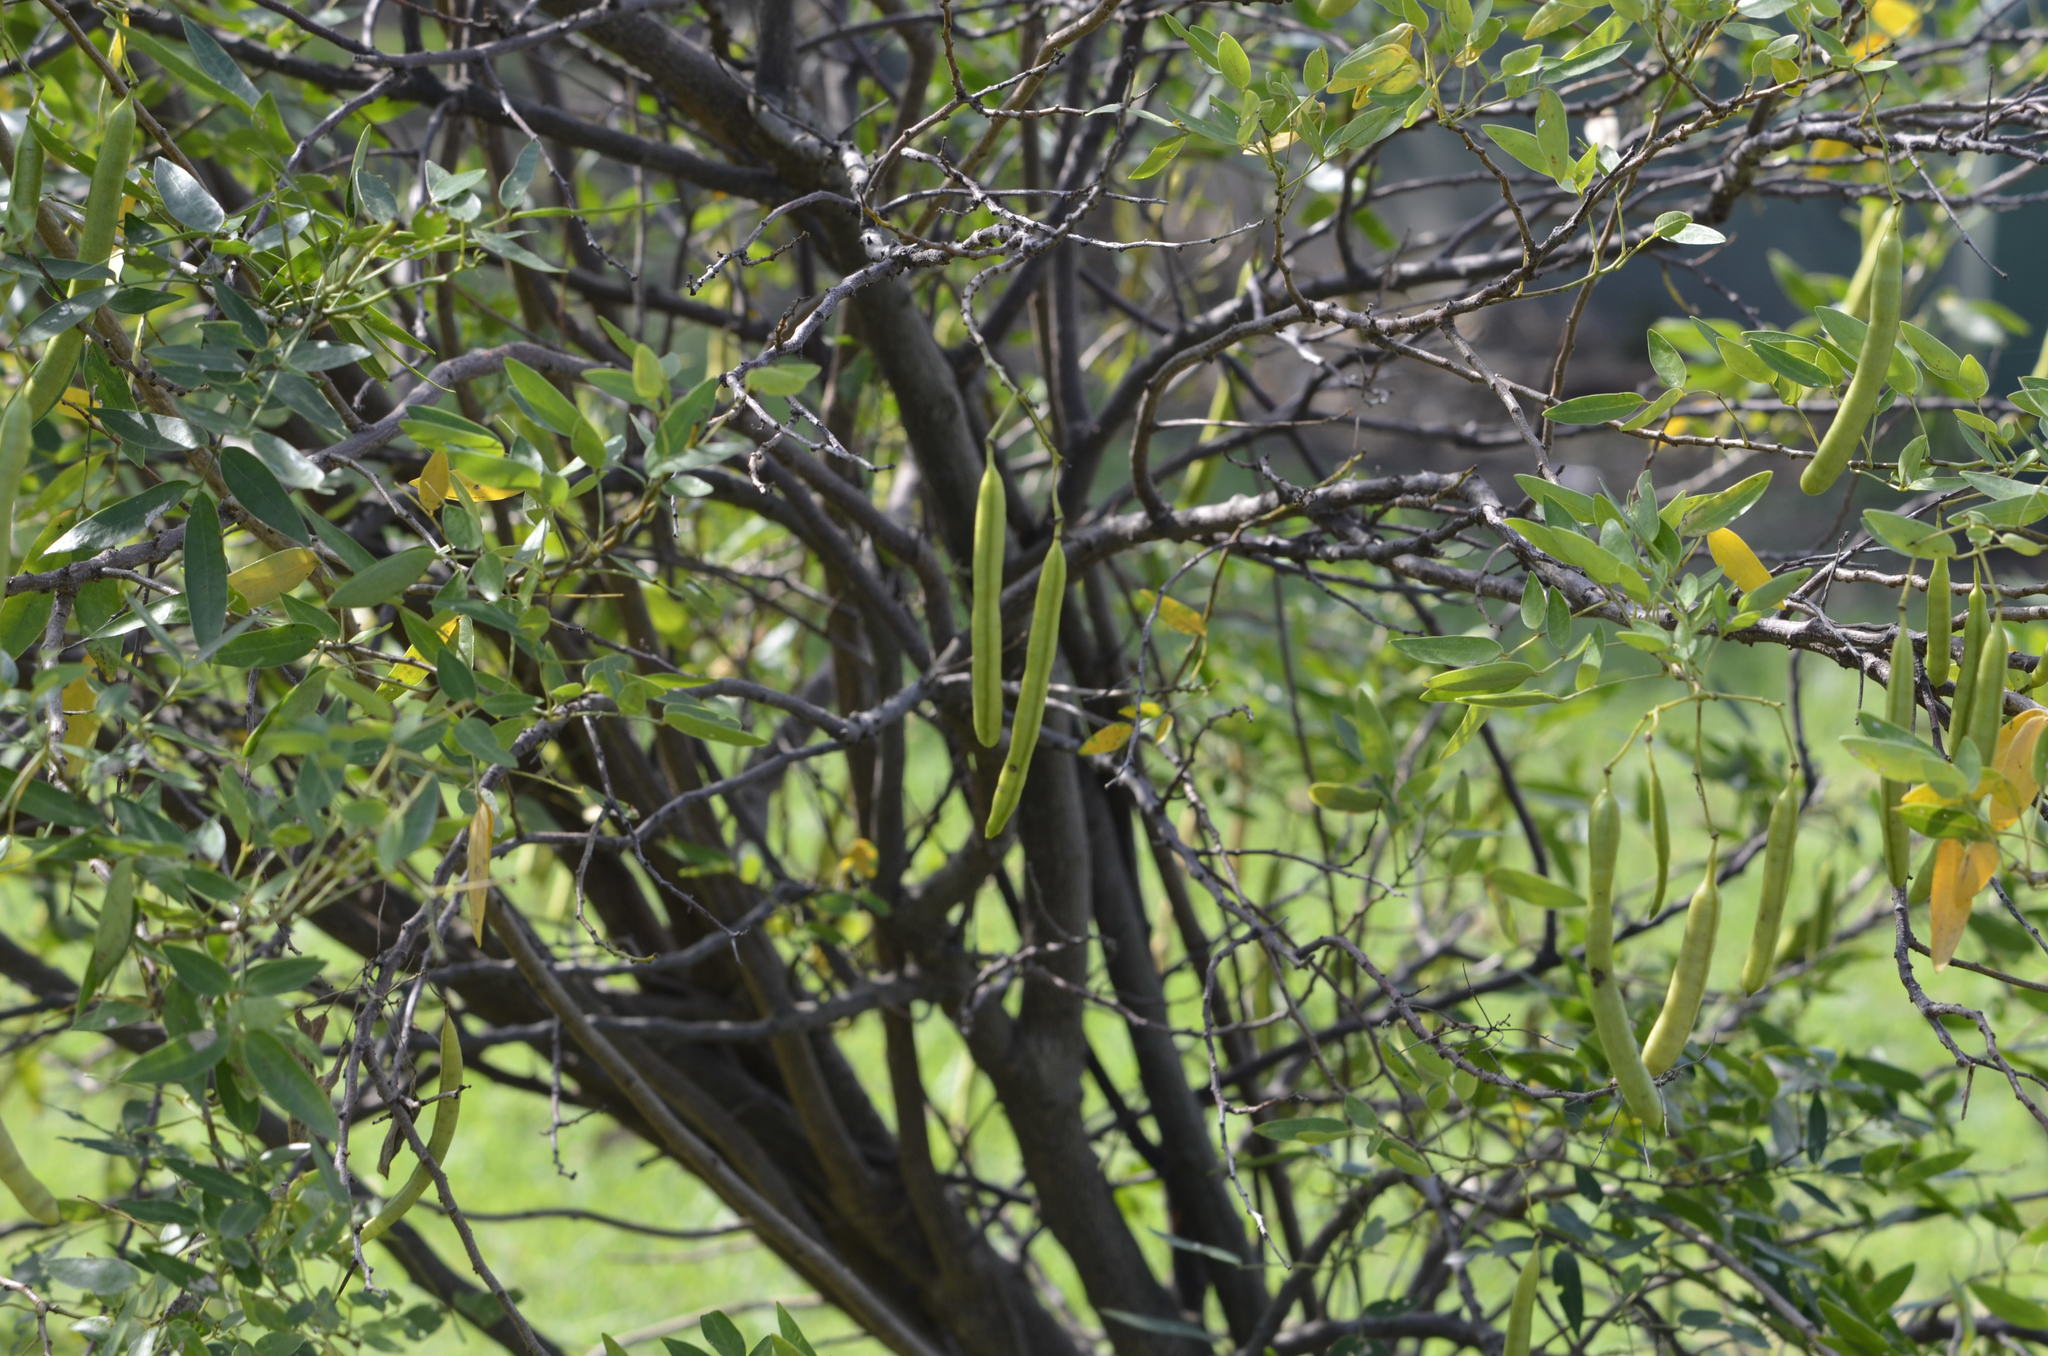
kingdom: Plantae
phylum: Tracheophyta
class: Magnoliopsida
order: Fabales
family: Fabaceae
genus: Senna
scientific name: Senna corymbosa
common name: Argentine senna
